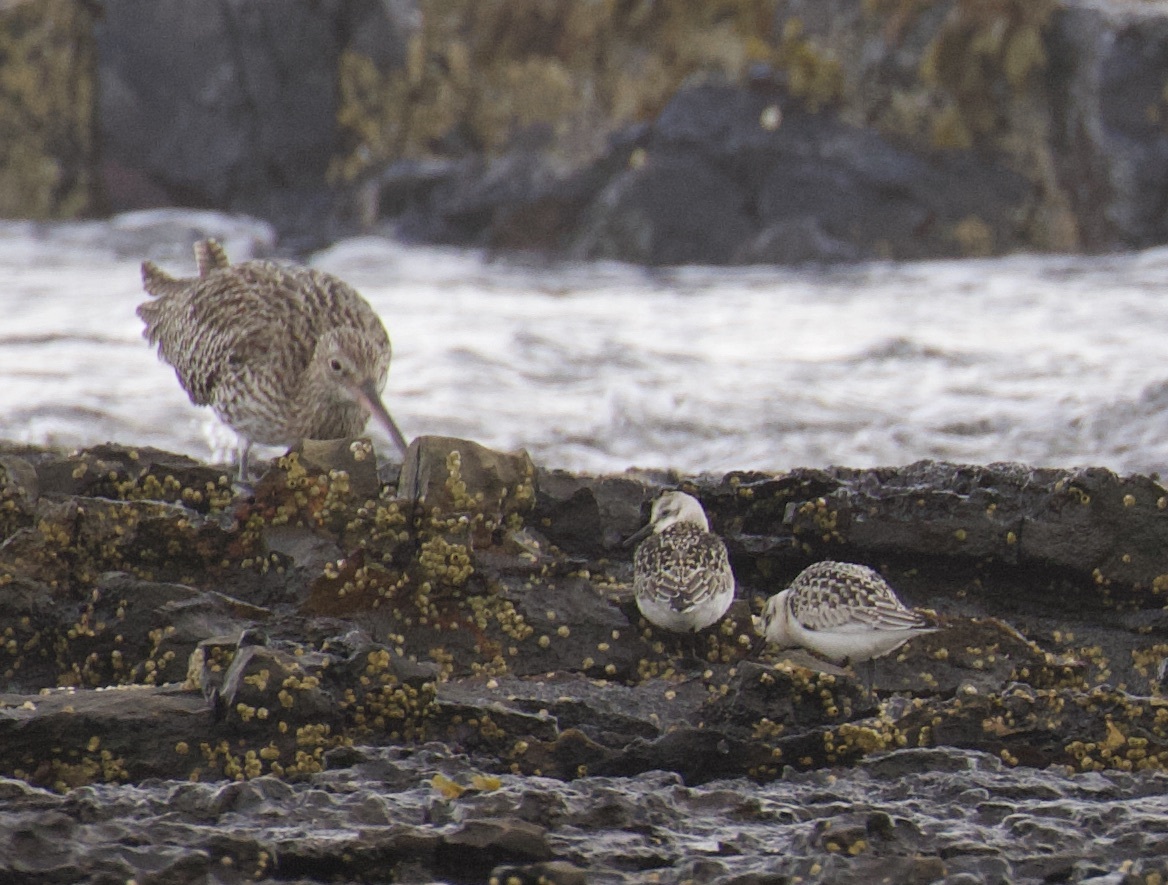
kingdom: Animalia
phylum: Chordata
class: Aves
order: Charadriiformes
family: Scolopacidae
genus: Calidris
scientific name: Calidris alba
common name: Sanderling
